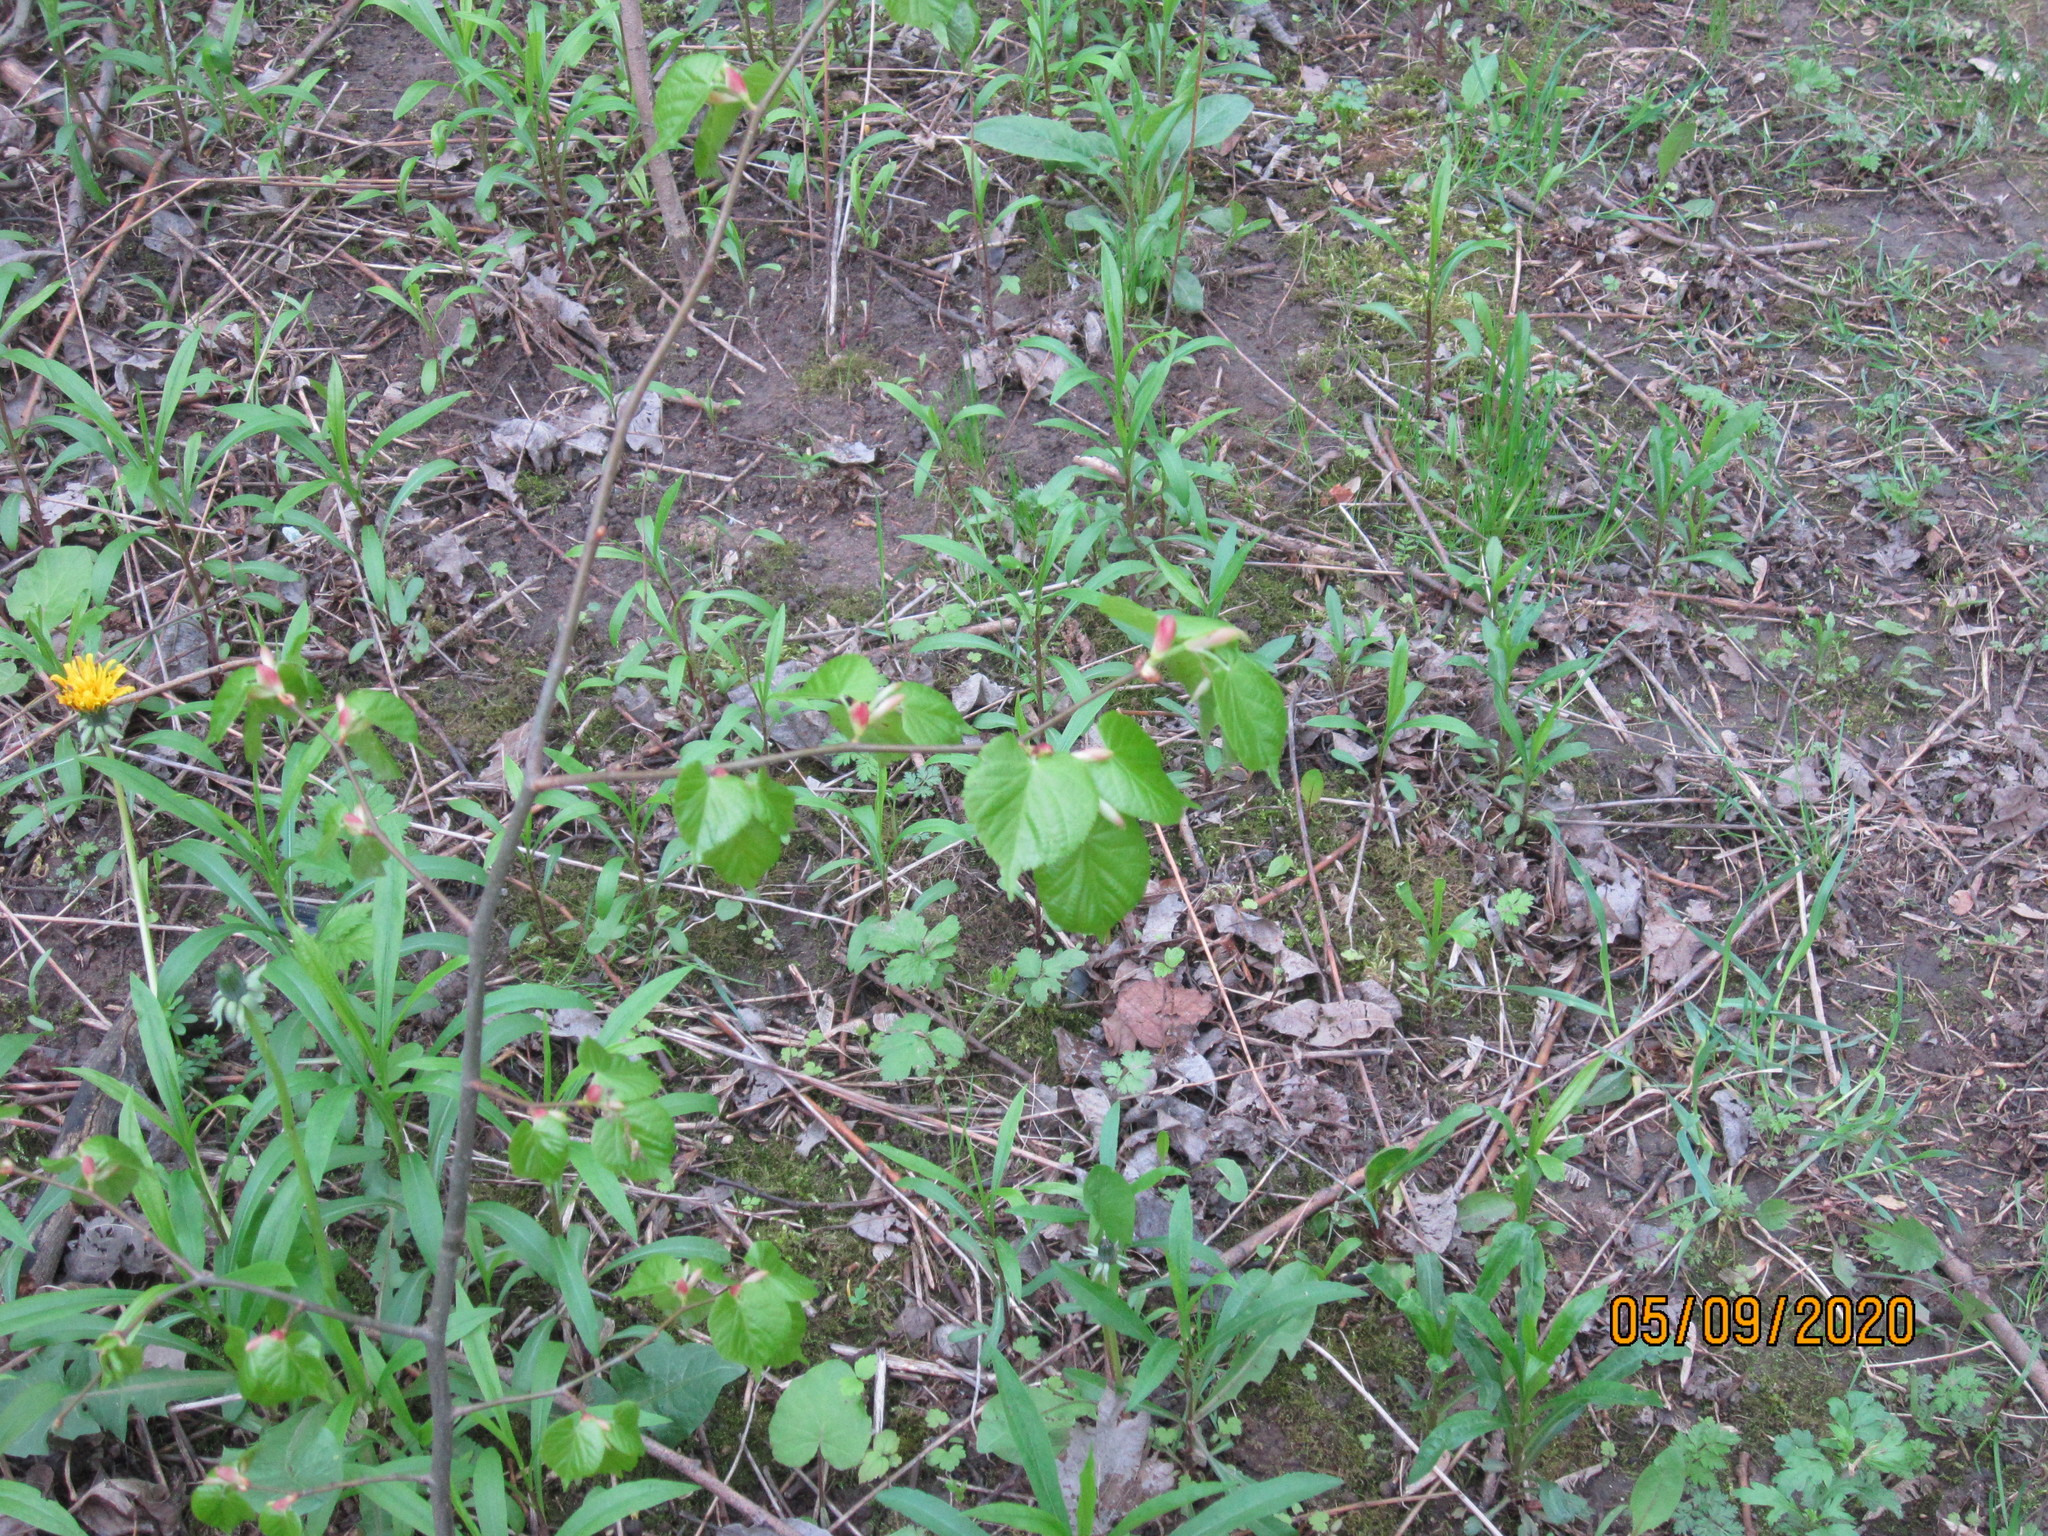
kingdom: Plantae
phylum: Tracheophyta
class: Magnoliopsida
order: Malvales
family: Malvaceae
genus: Tilia
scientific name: Tilia platyphyllos
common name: Large-leaved lime
